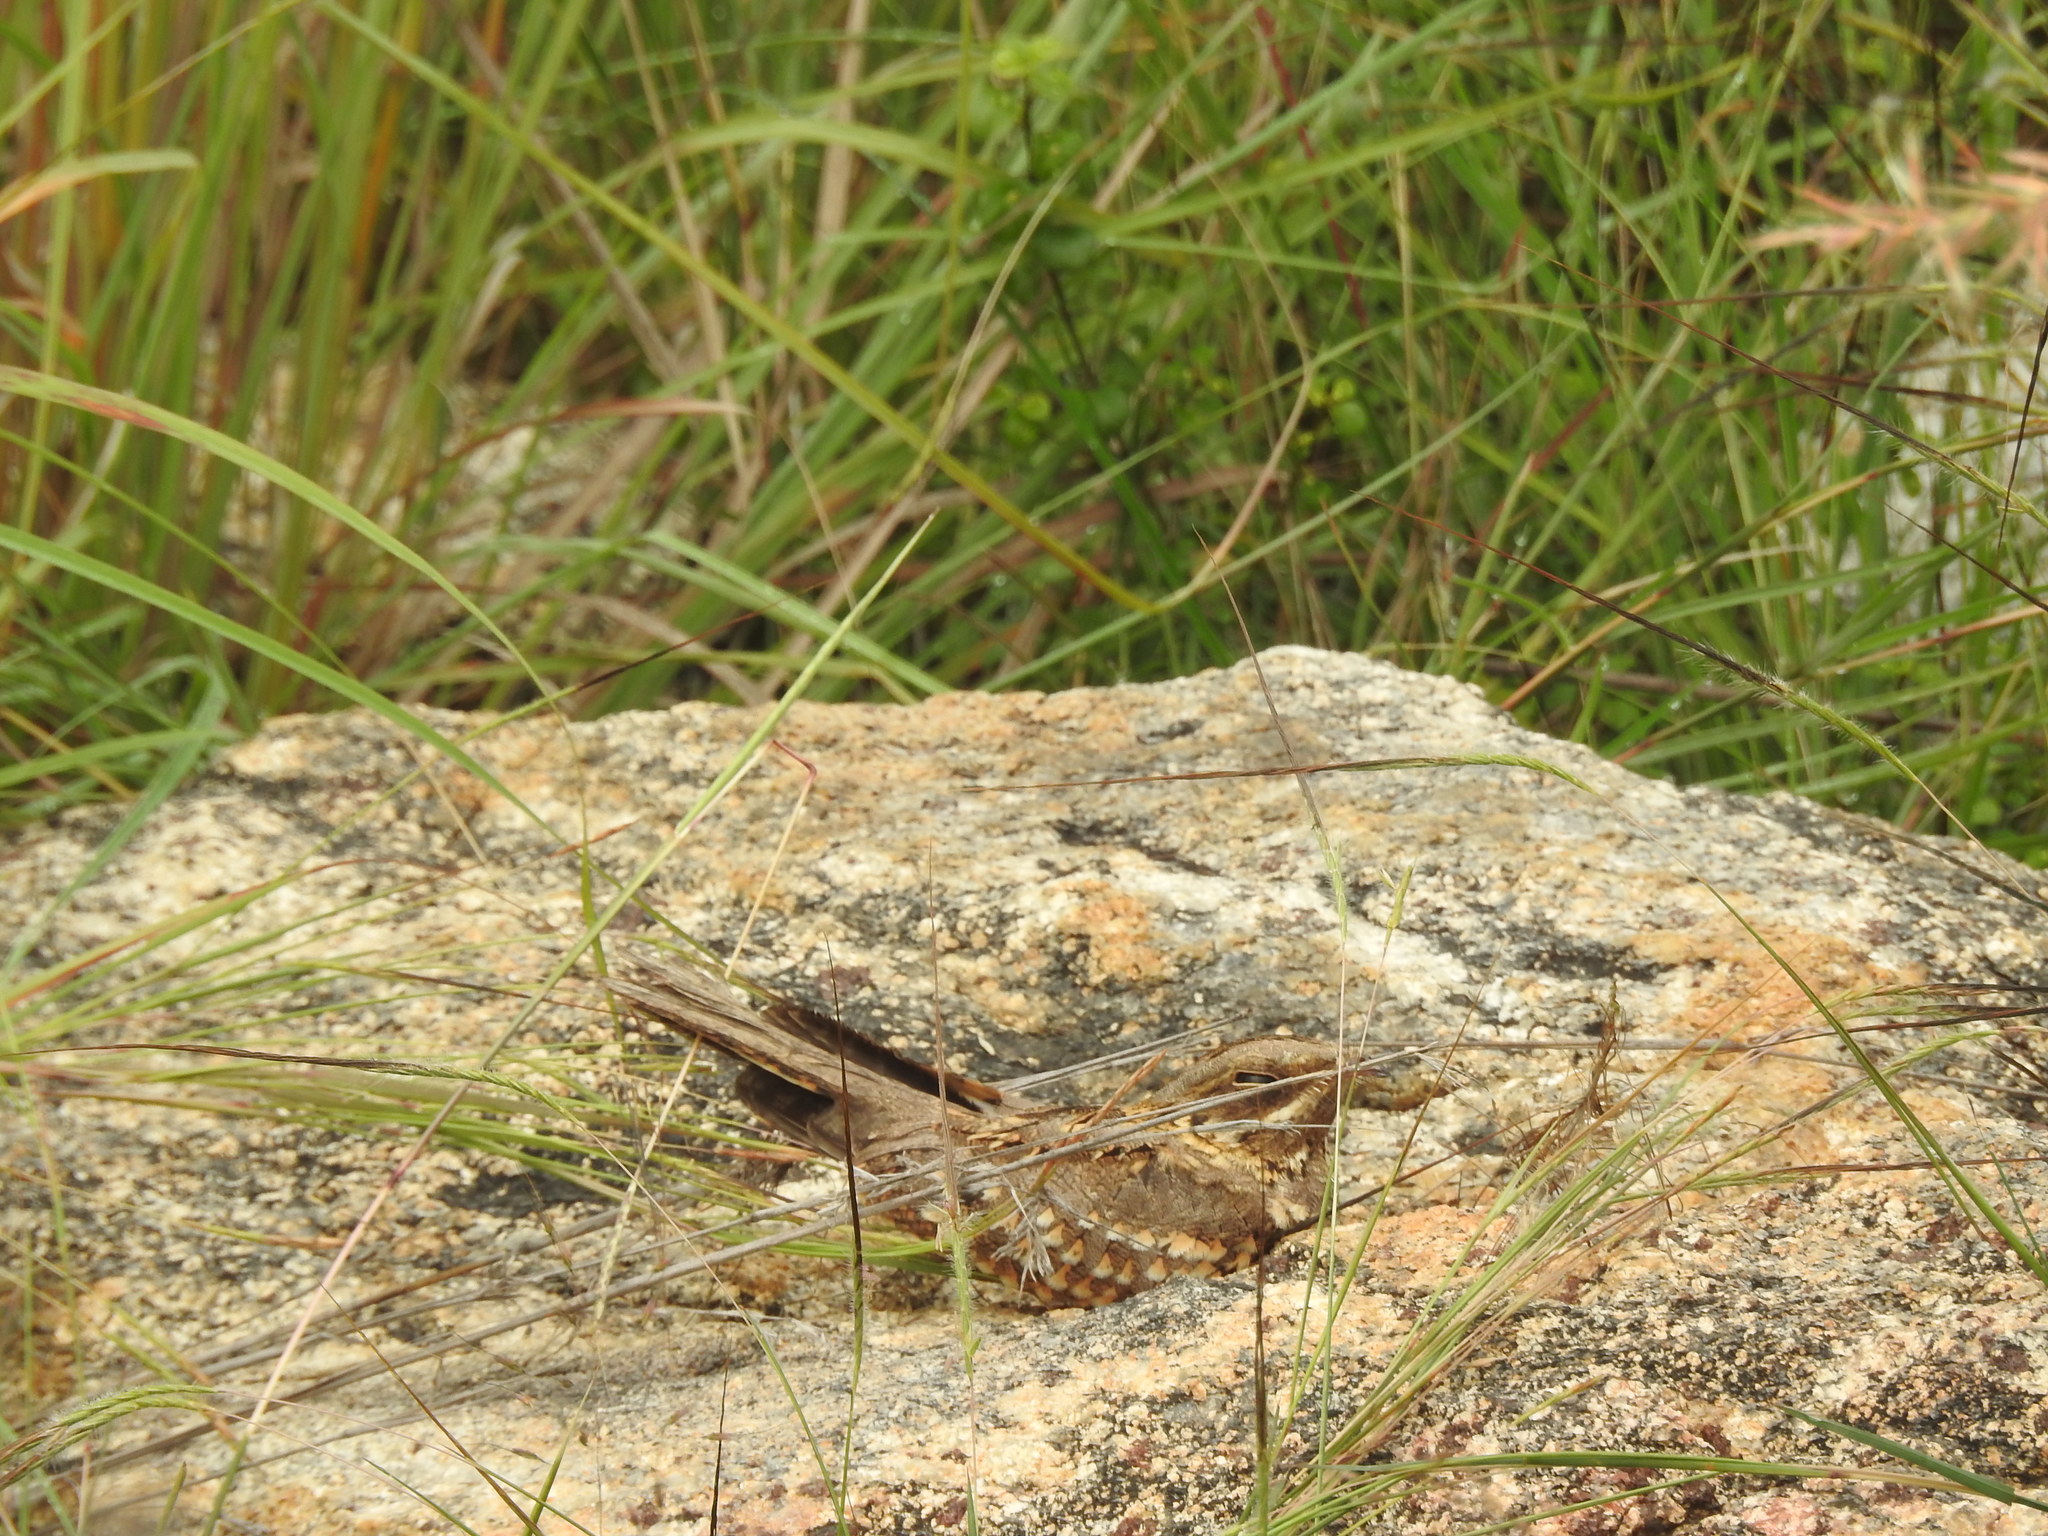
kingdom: Animalia
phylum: Chordata
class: Aves
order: Caprimulgiformes
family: Caprimulgidae
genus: Caprimulgus
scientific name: Caprimulgus macrurus
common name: Large-tailed nightjar
